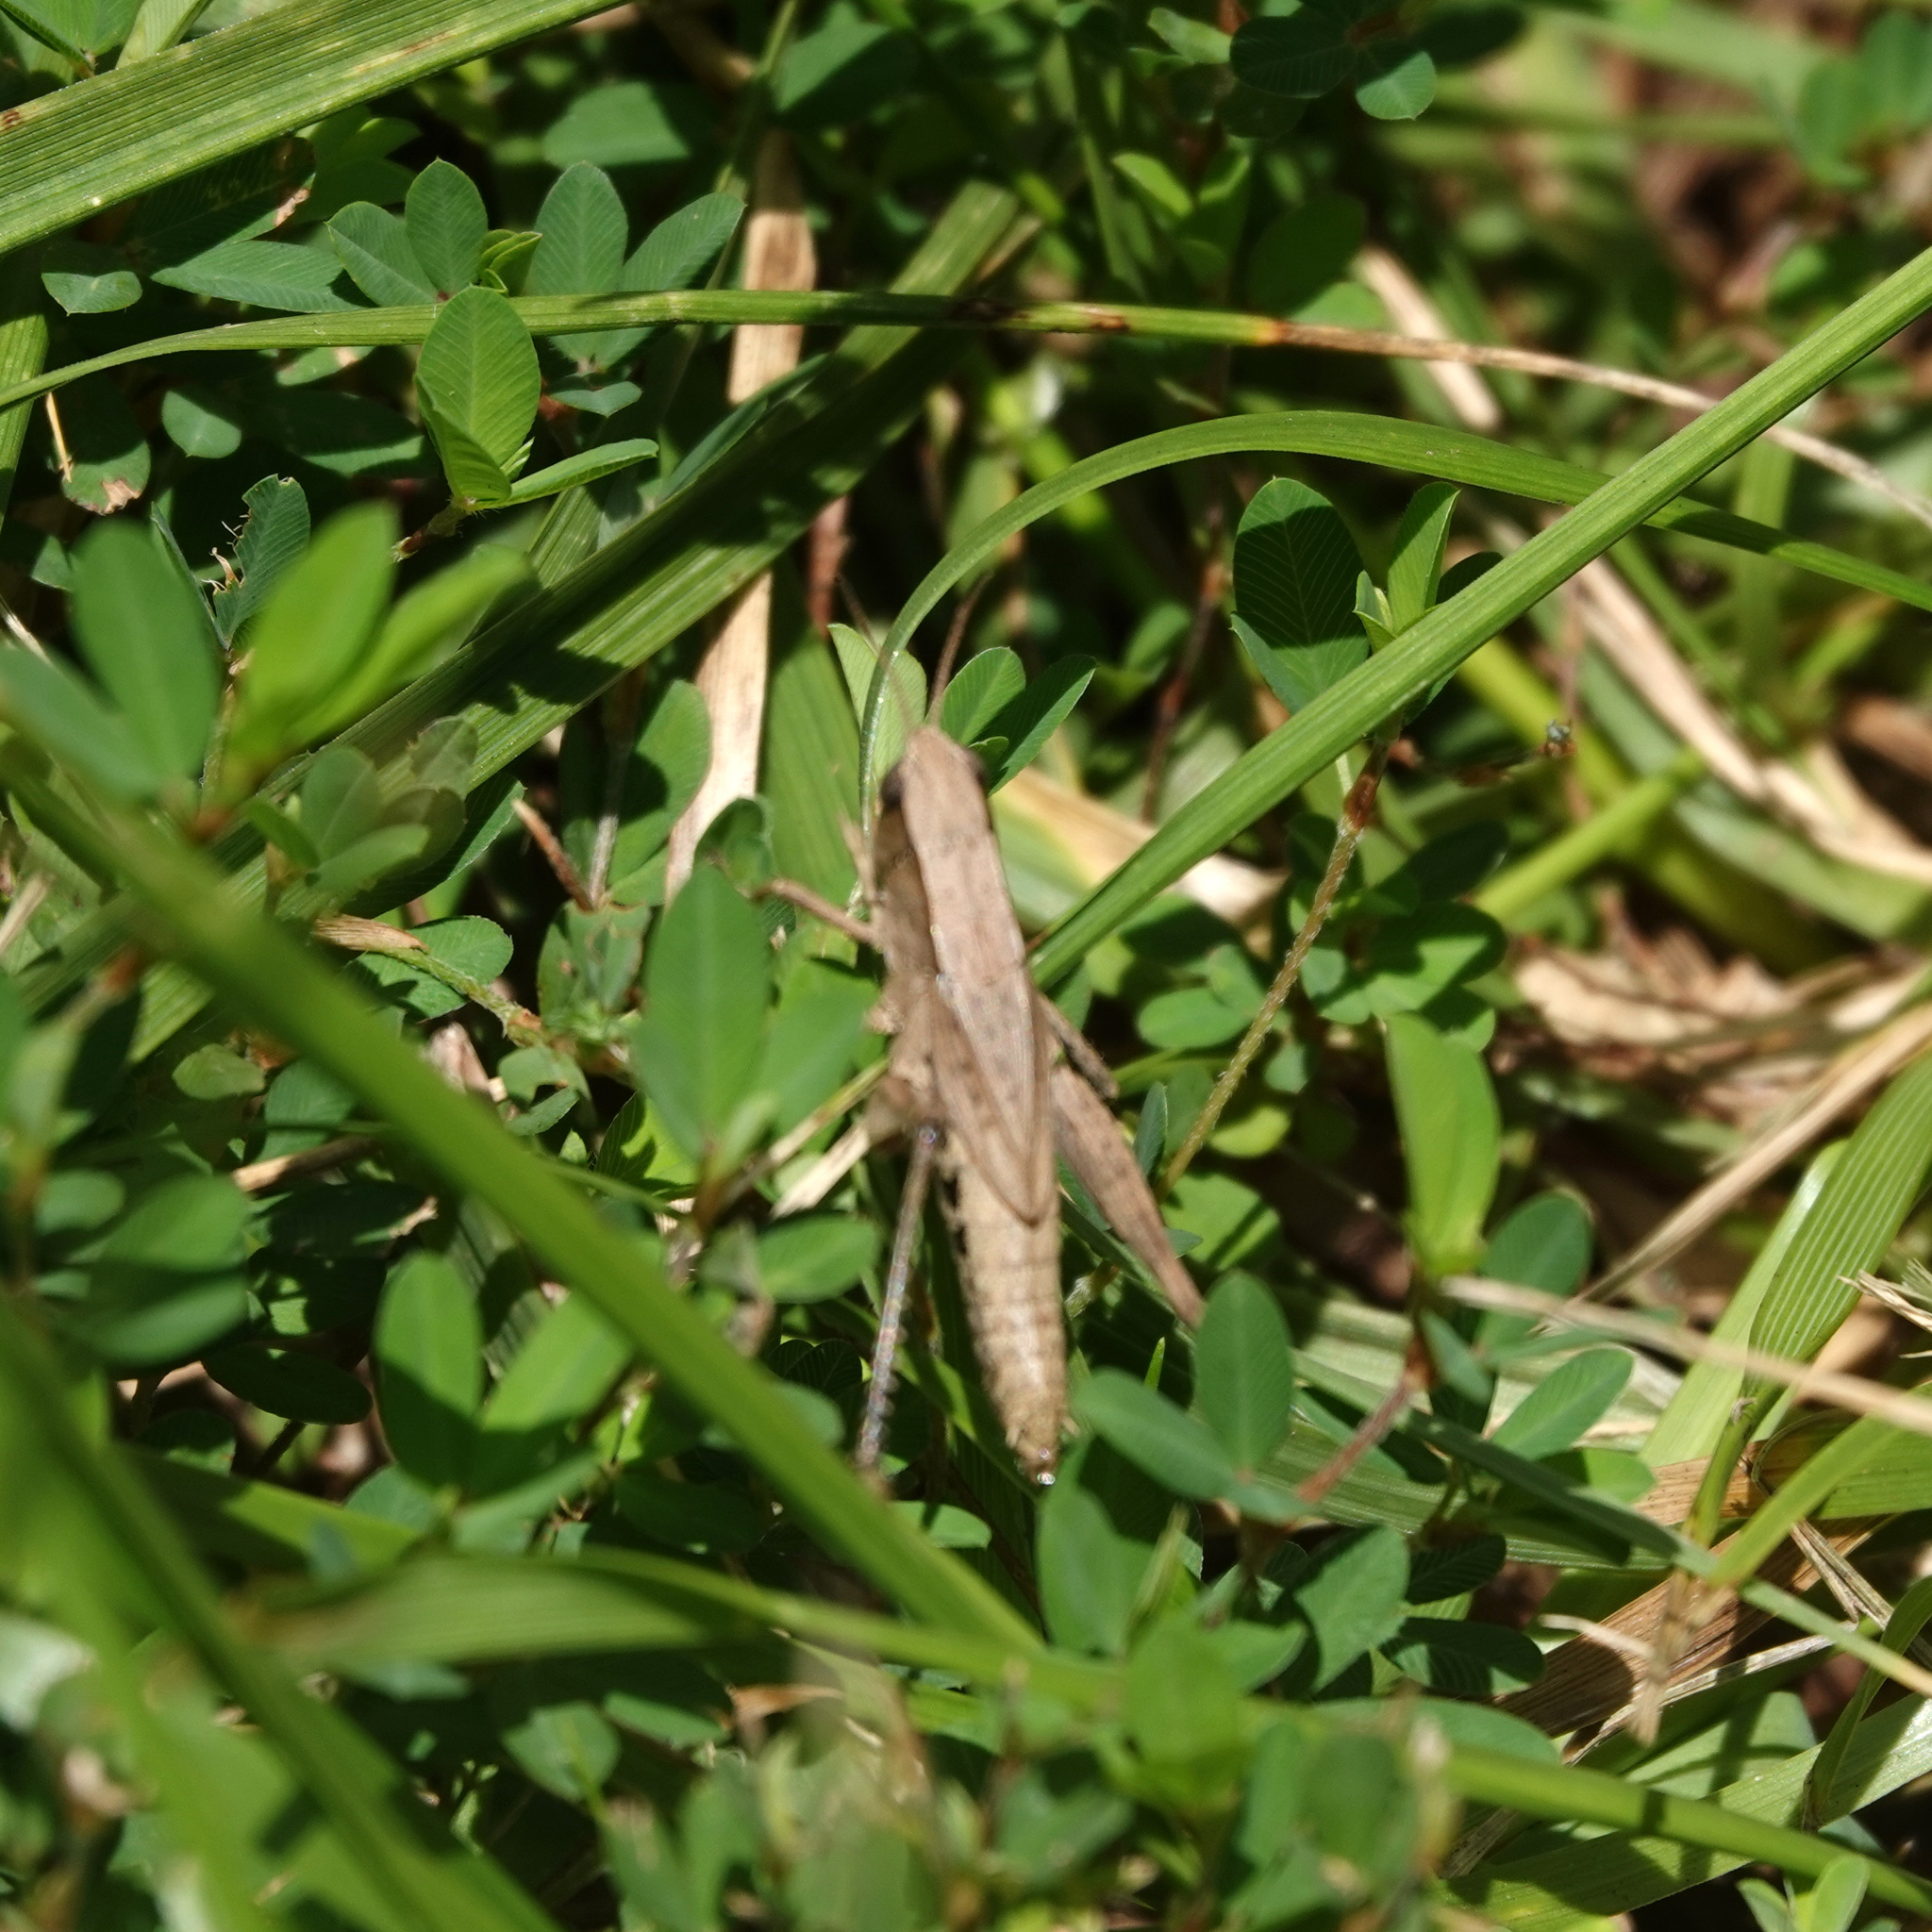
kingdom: Animalia
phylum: Arthropoda
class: Insecta
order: Orthoptera
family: Acrididae
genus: Dichromorpha
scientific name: Dichromorpha viridis
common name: Short-winged green grasshopper
